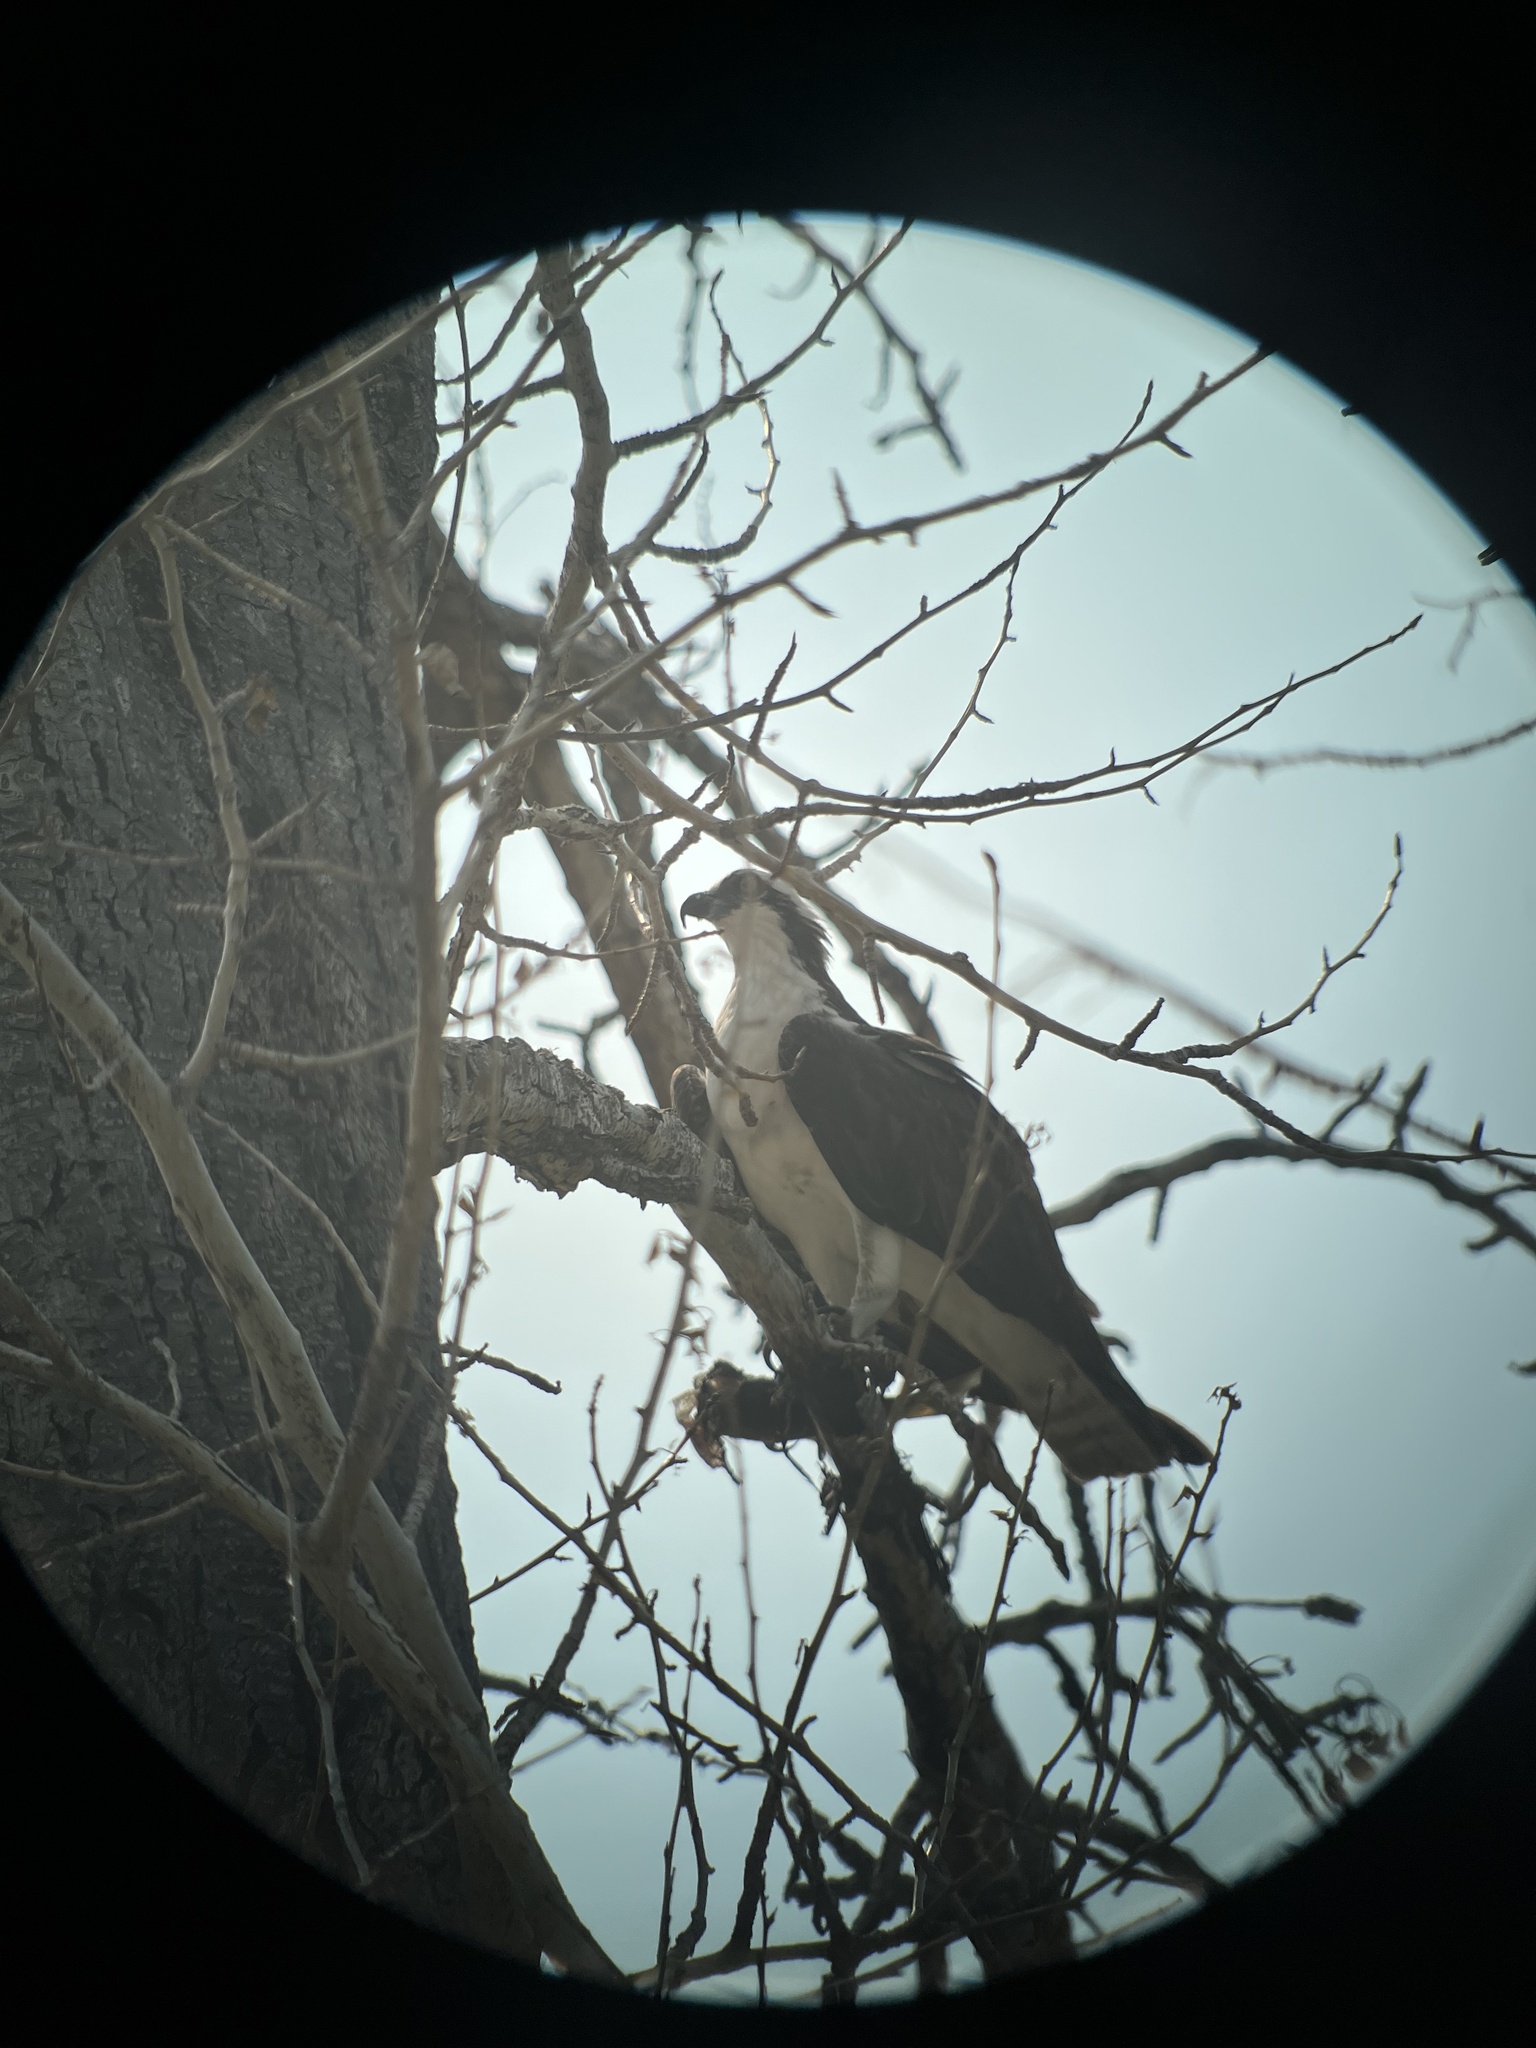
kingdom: Animalia
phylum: Chordata
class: Aves
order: Accipitriformes
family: Pandionidae
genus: Pandion
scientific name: Pandion haliaetus
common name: Osprey
